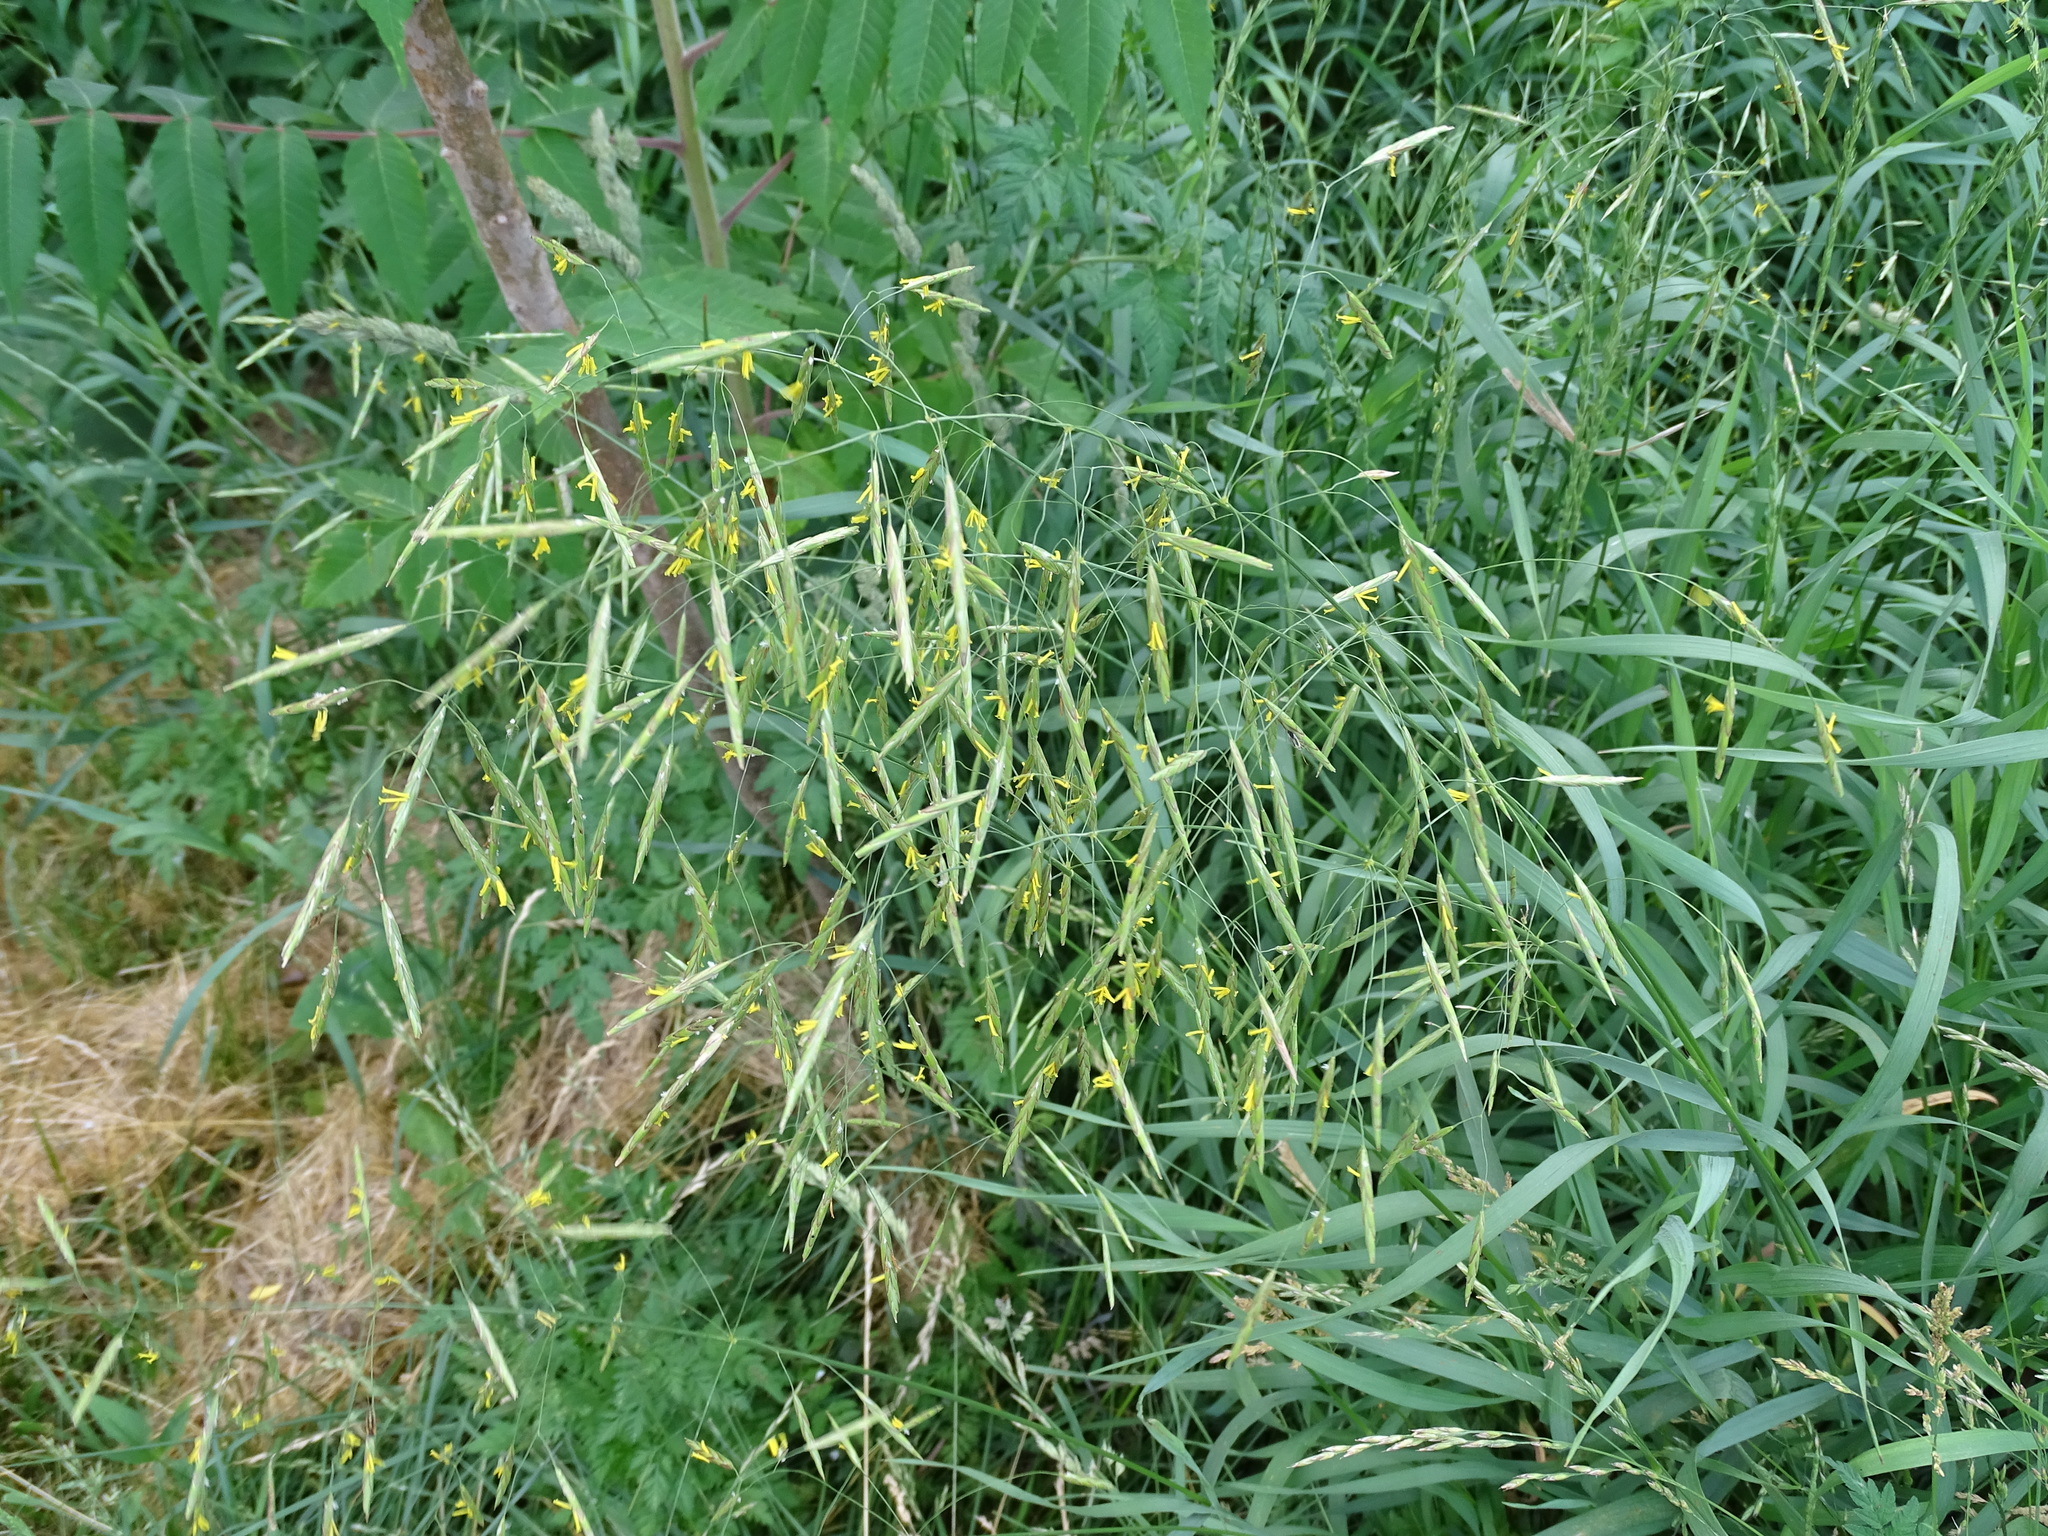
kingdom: Plantae
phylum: Tracheophyta
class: Liliopsida
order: Poales
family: Poaceae
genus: Bromus
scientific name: Bromus inermis
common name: Smooth brome
